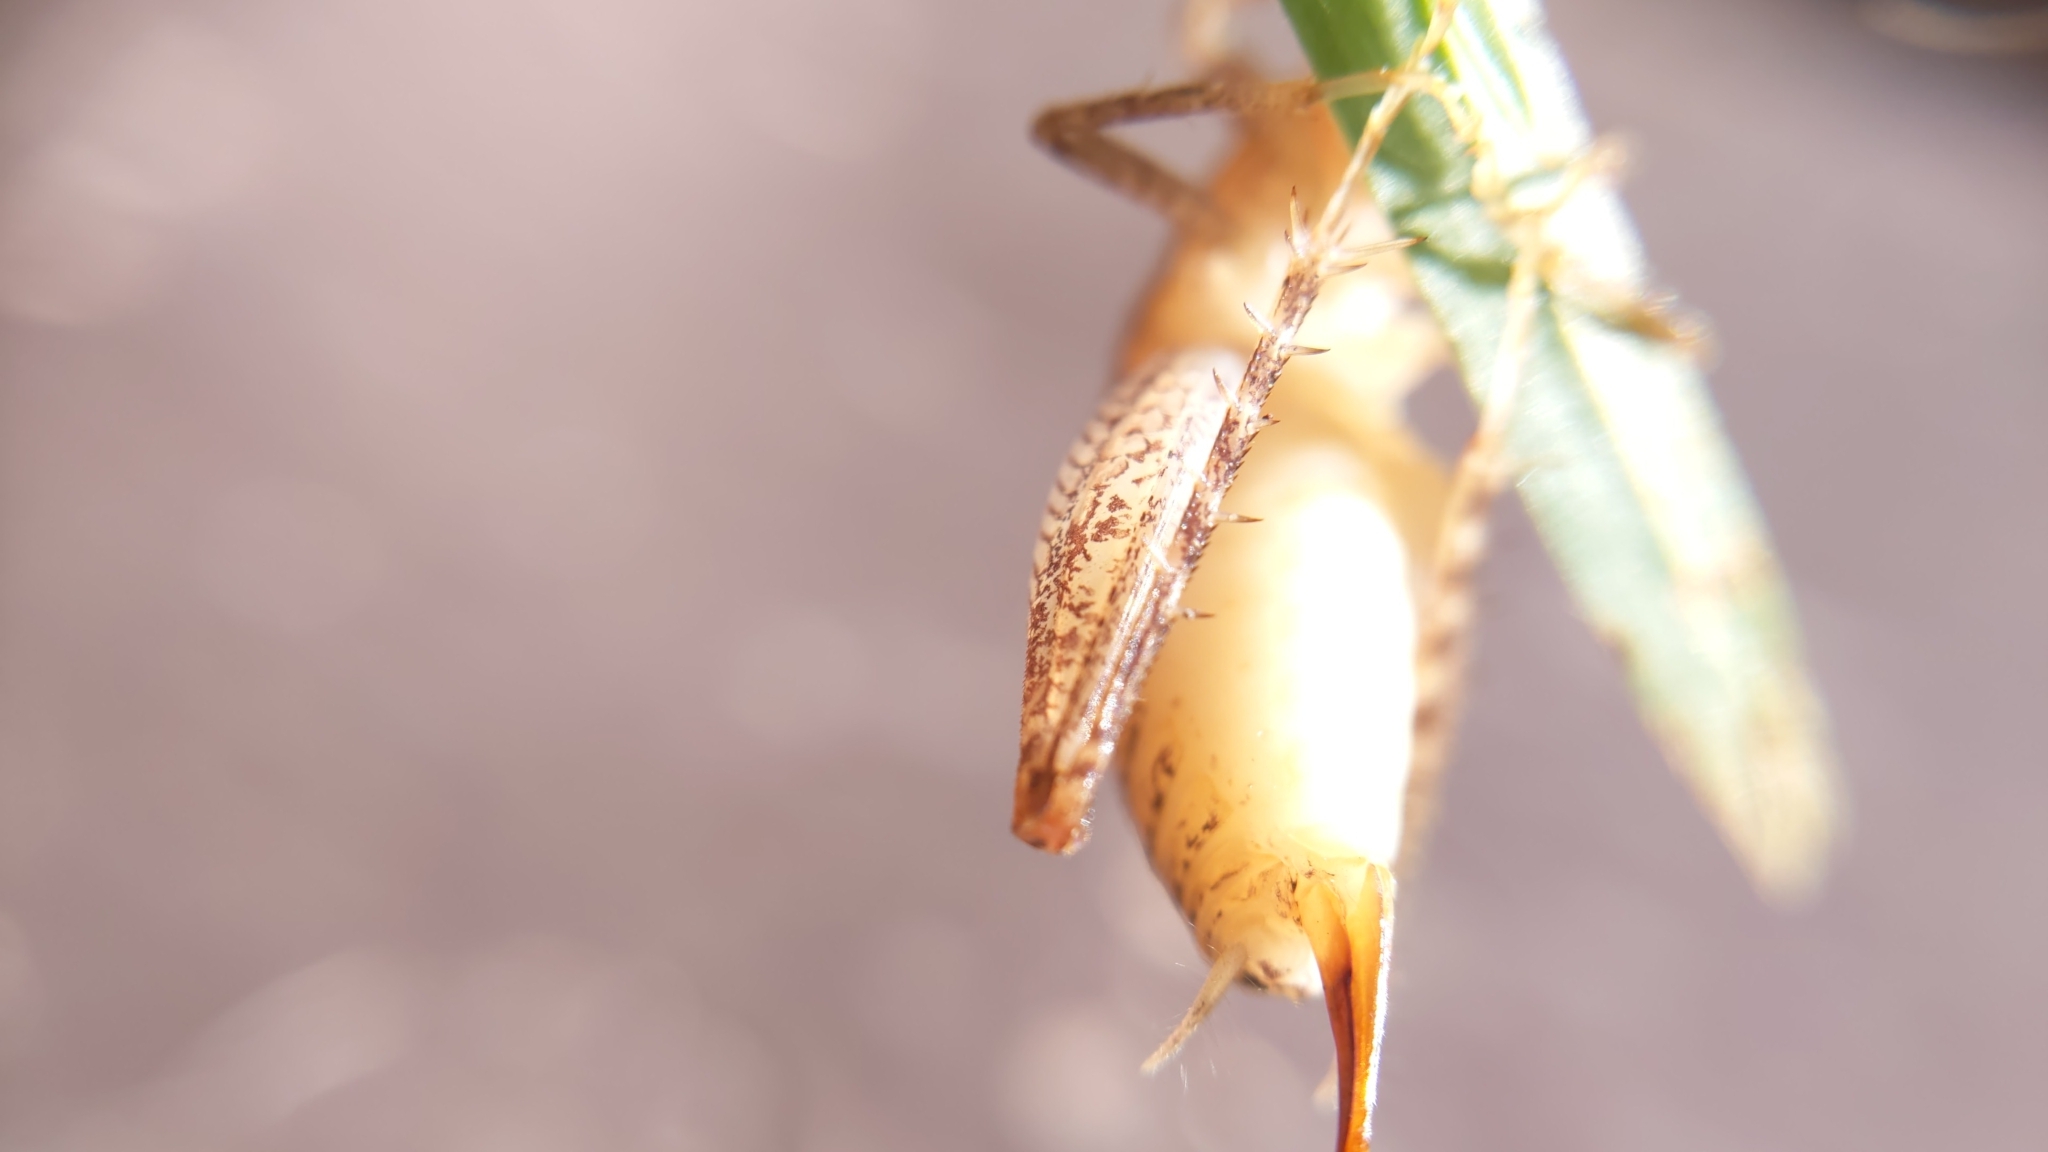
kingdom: Animalia
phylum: Arthropoda
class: Insecta
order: Orthoptera
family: Rhaphidophoridae
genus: Pristoceuthophilus
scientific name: Pristoceuthophilus
